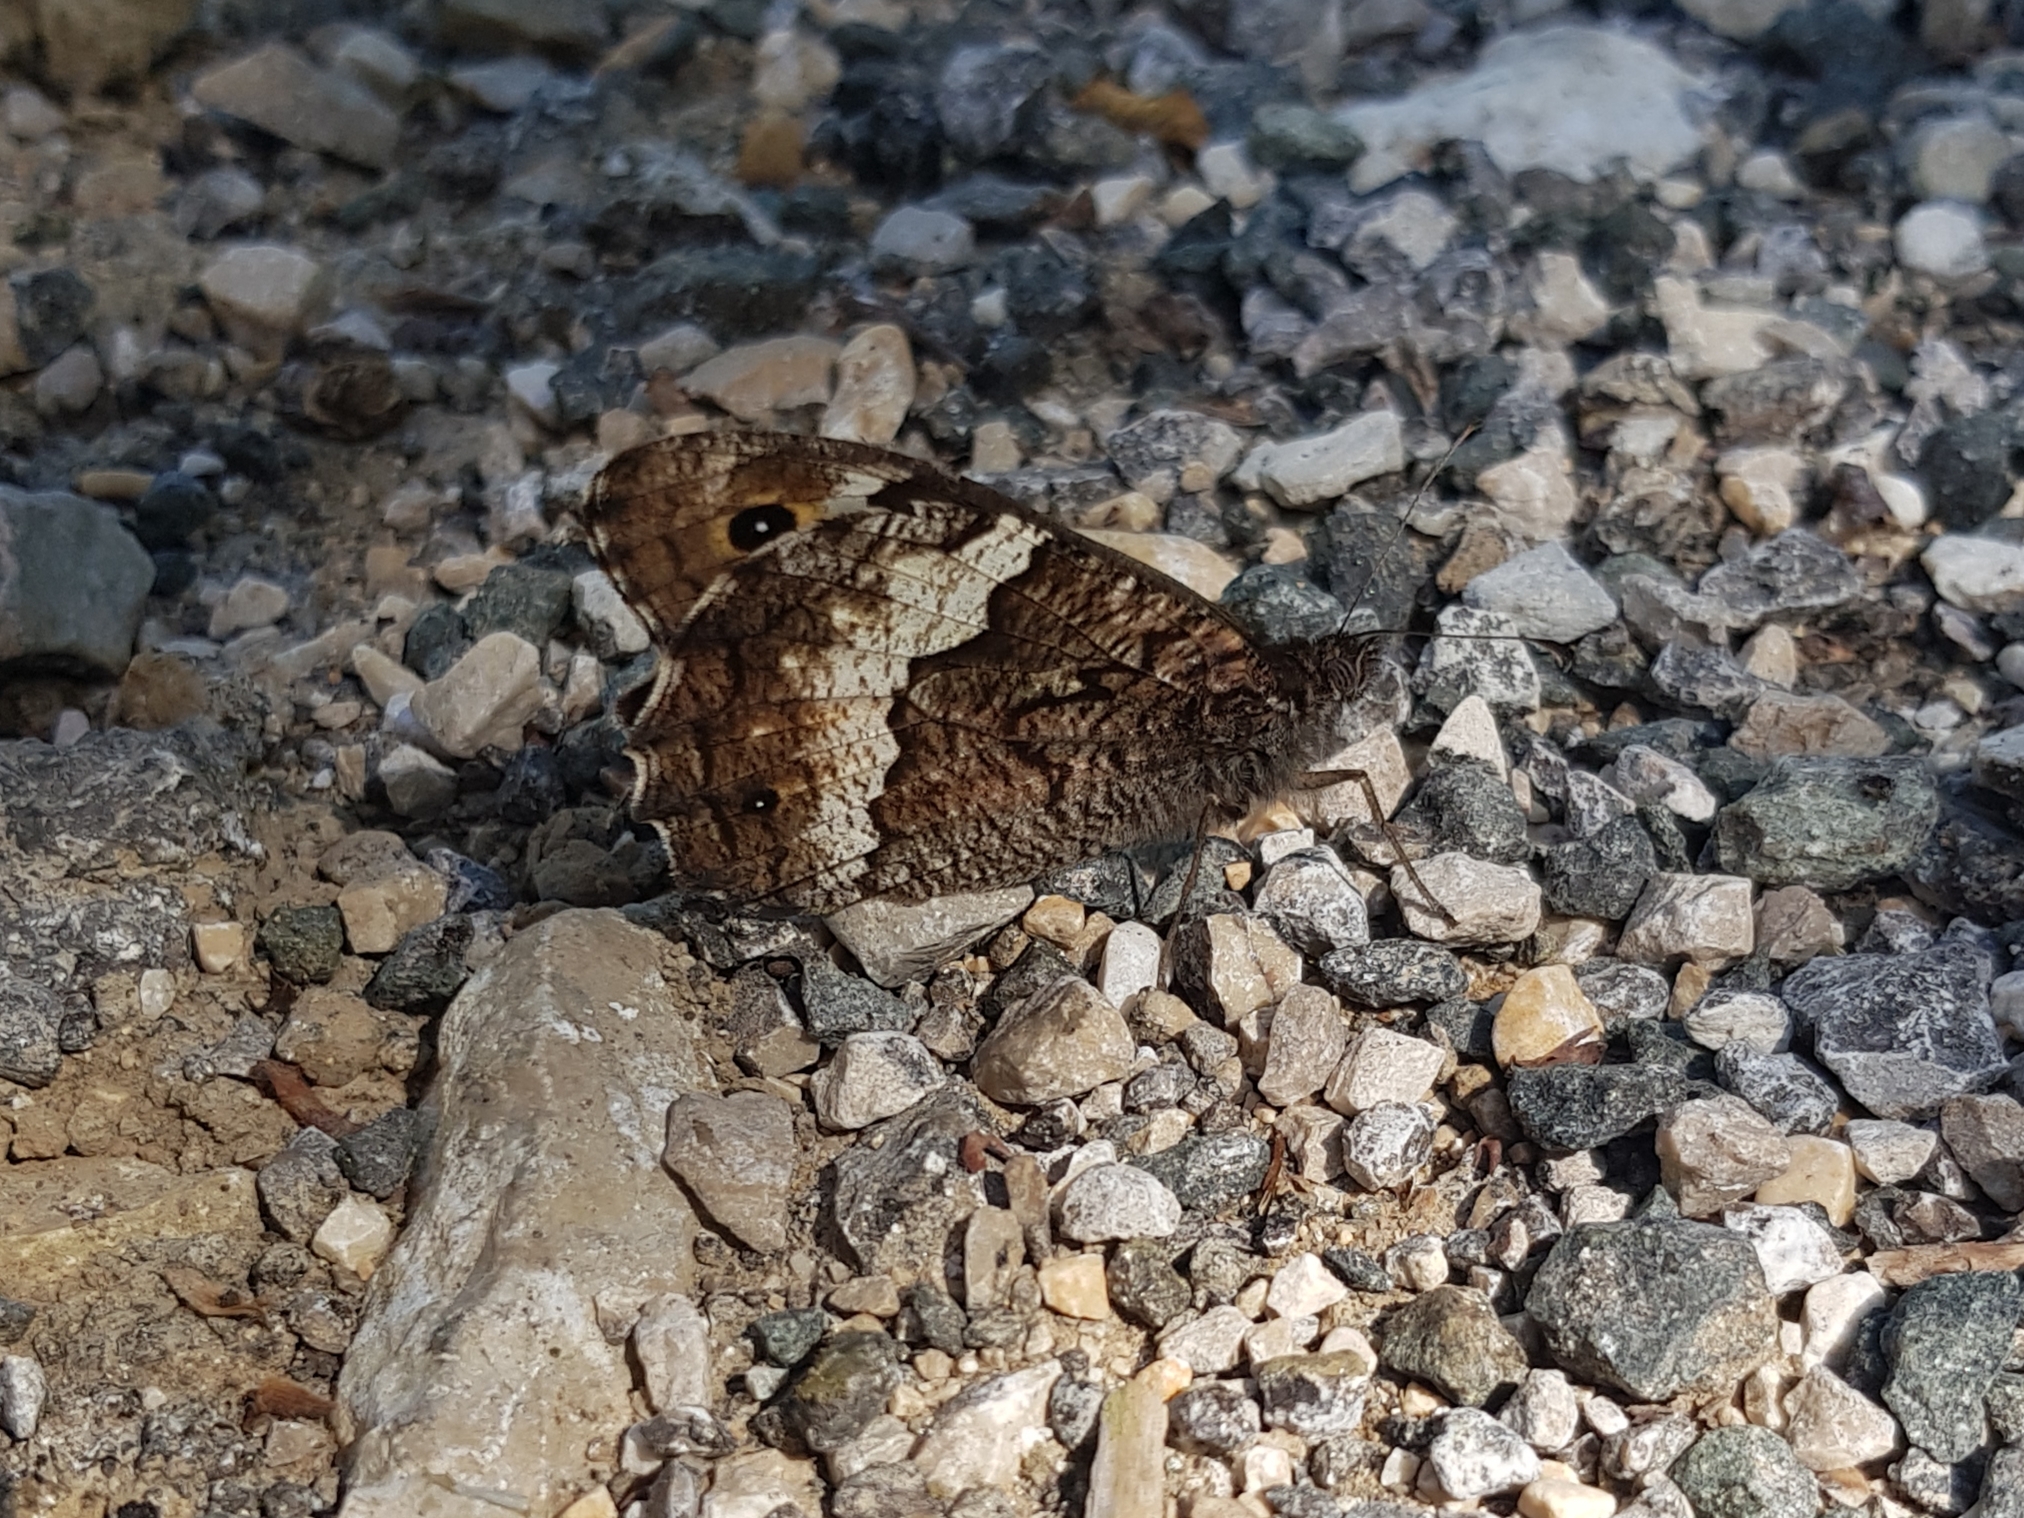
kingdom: Animalia
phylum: Arthropoda
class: Insecta
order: Lepidoptera
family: Nymphalidae
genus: Hipparchia
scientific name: Hipparchia fagi
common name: Woodland grayling
